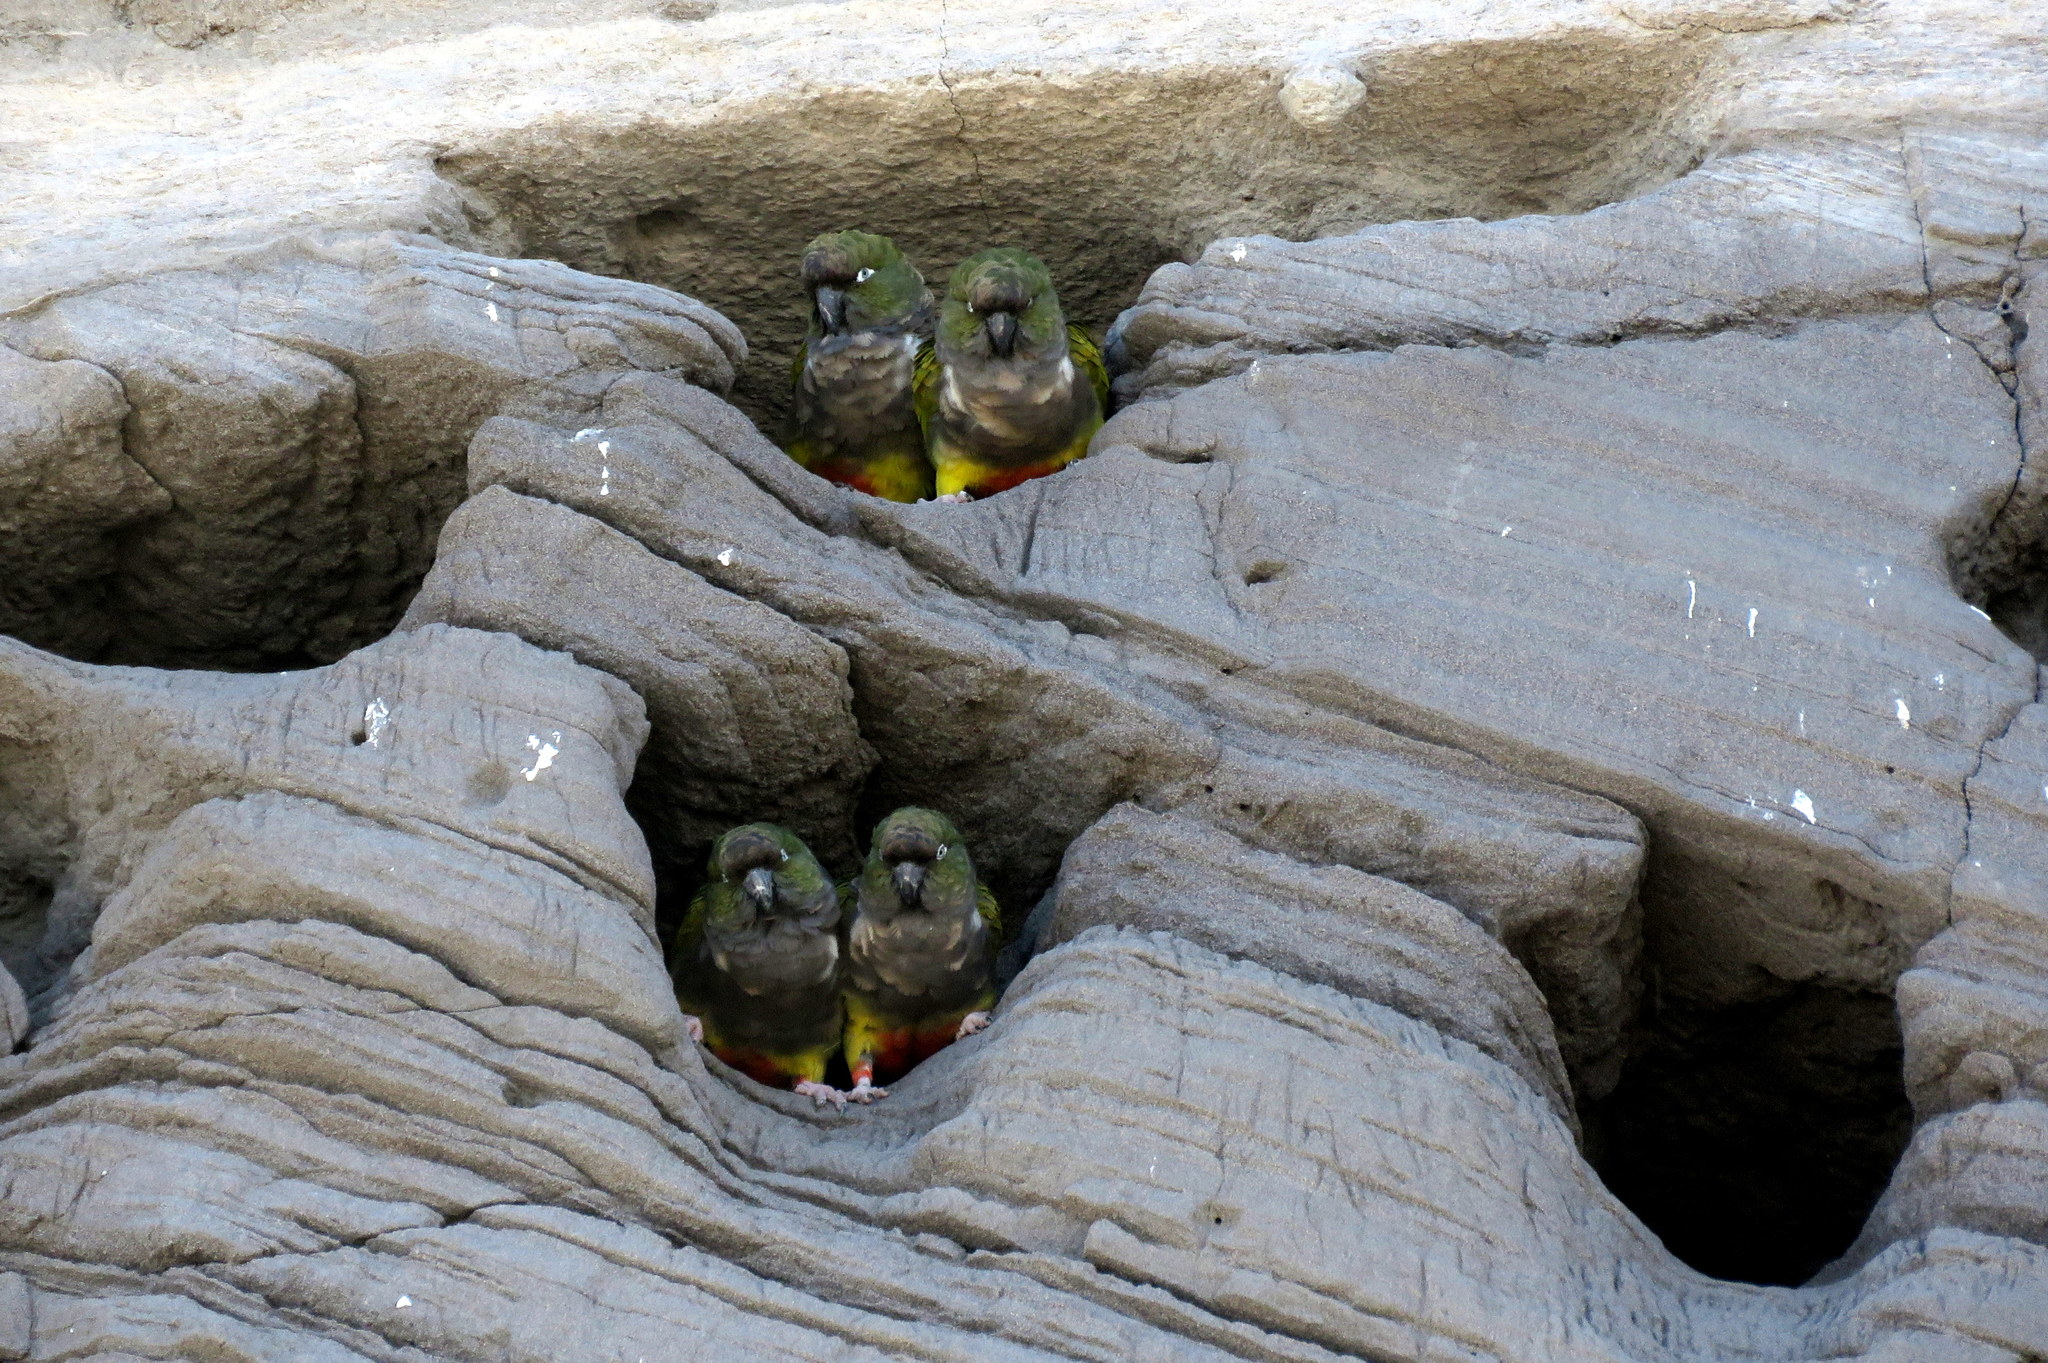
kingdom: Animalia
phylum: Chordata
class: Aves
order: Psittaciformes
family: Psittacidae
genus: Cyanoliseus
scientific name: Cyanoliseus patagonus
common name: Burrowing parrot
